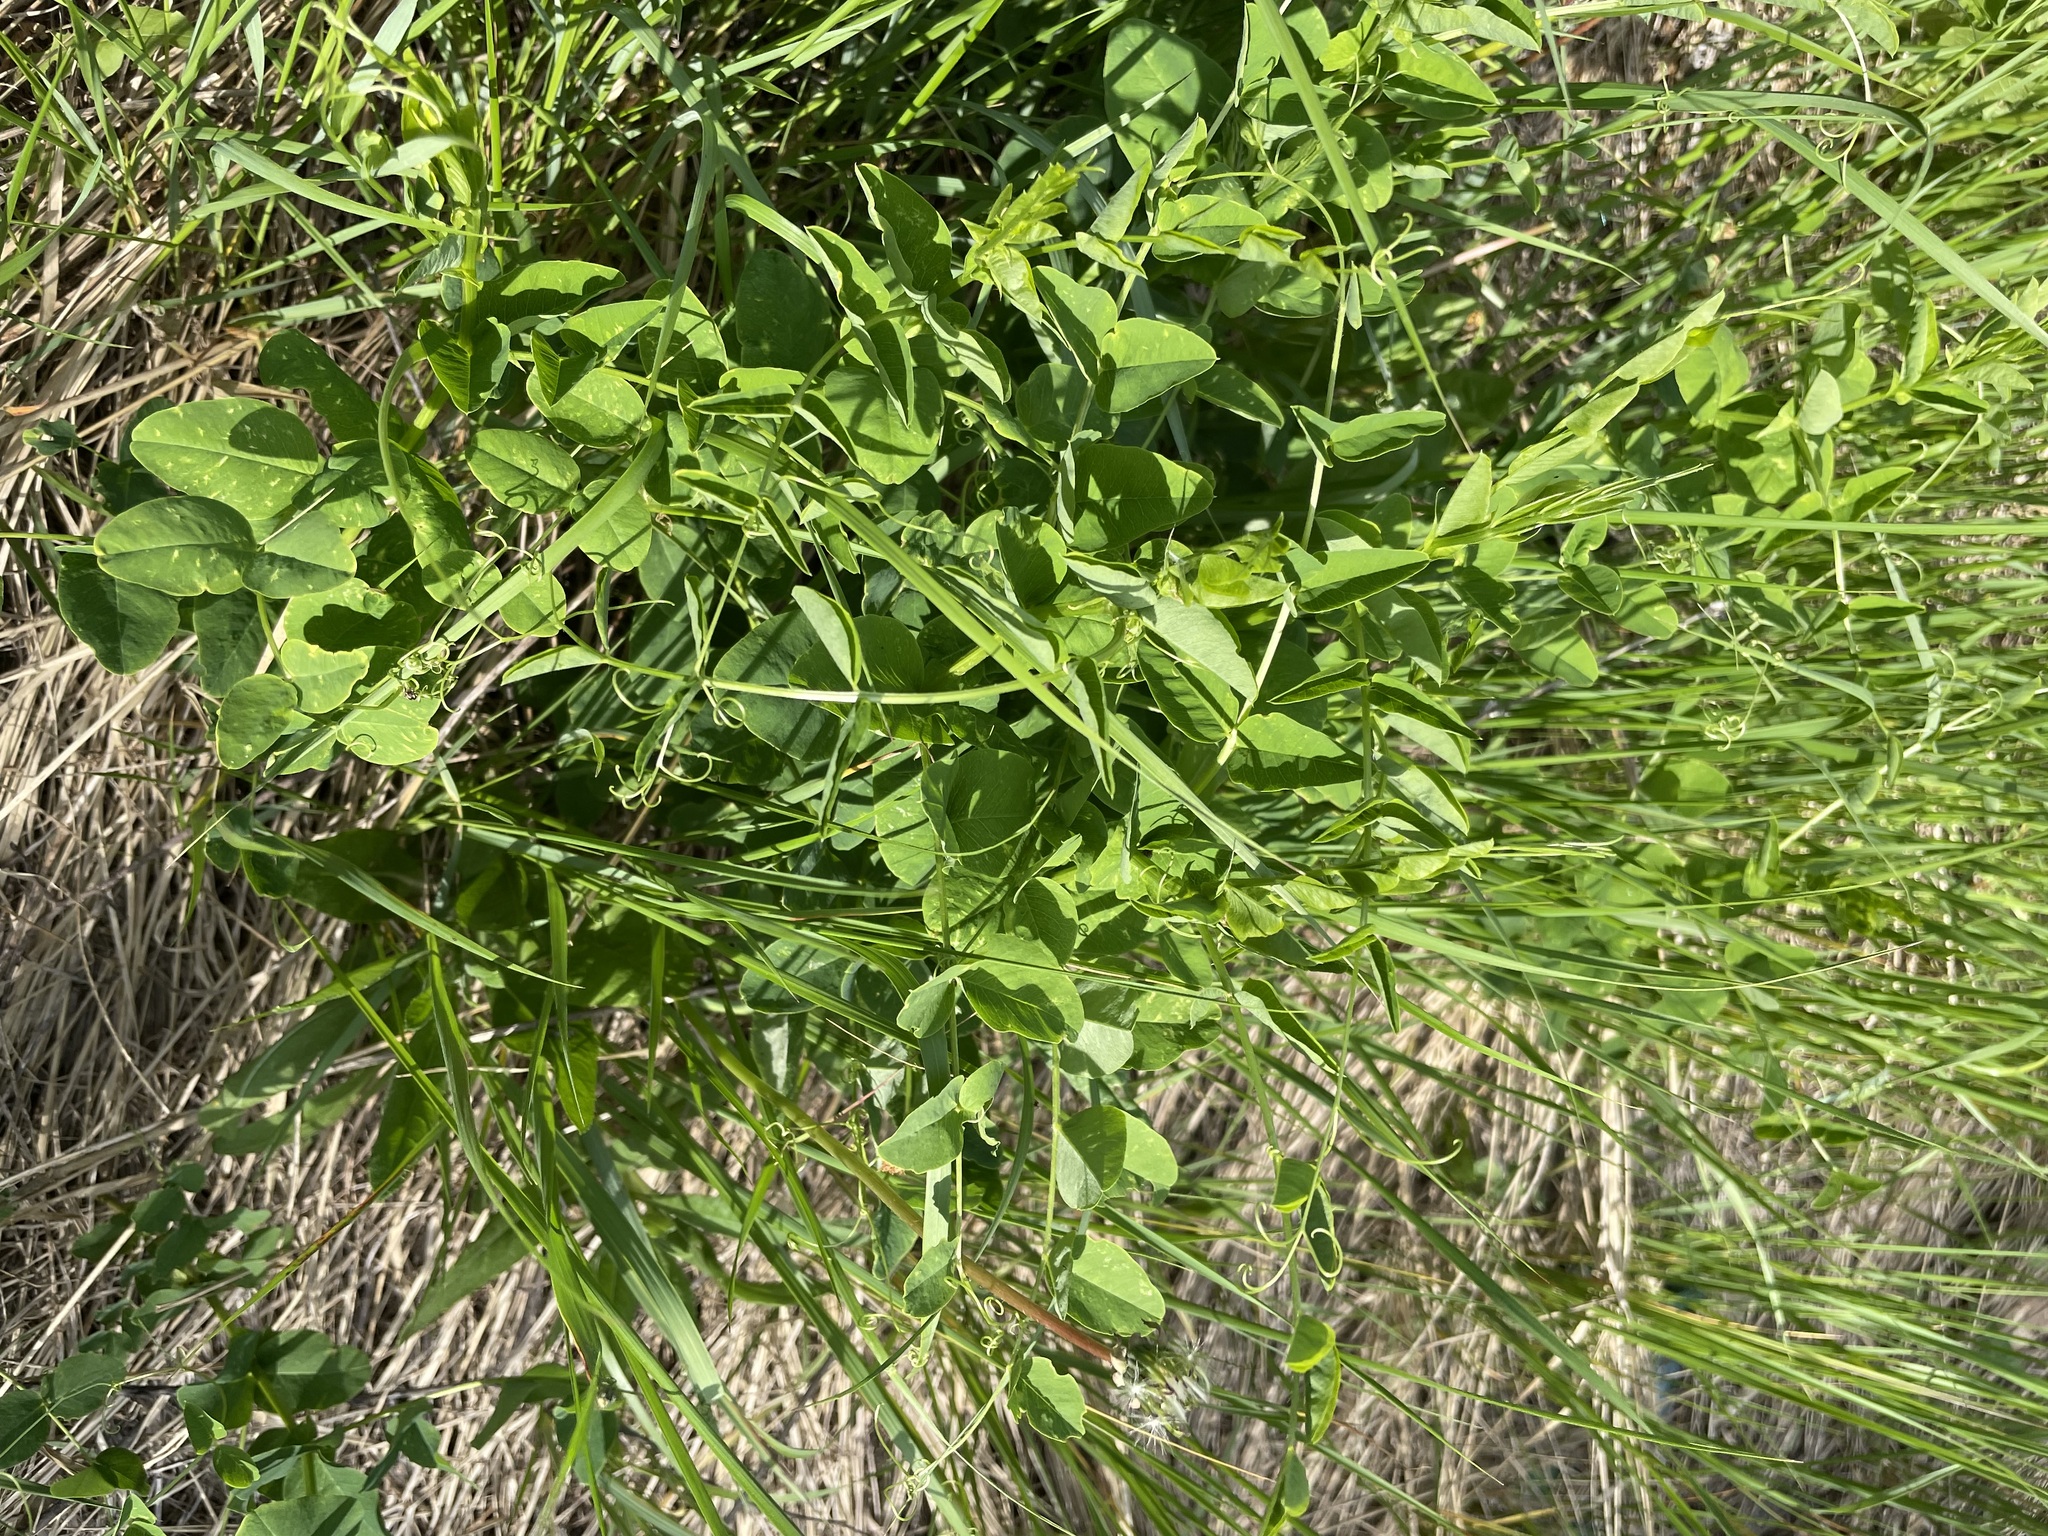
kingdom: Plantae
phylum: Tracheophyta
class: Magnoliopsida
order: Fabales
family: Fabaceae
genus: Vicia
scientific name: Vicia pisiformis
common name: Pale-flower vetch
